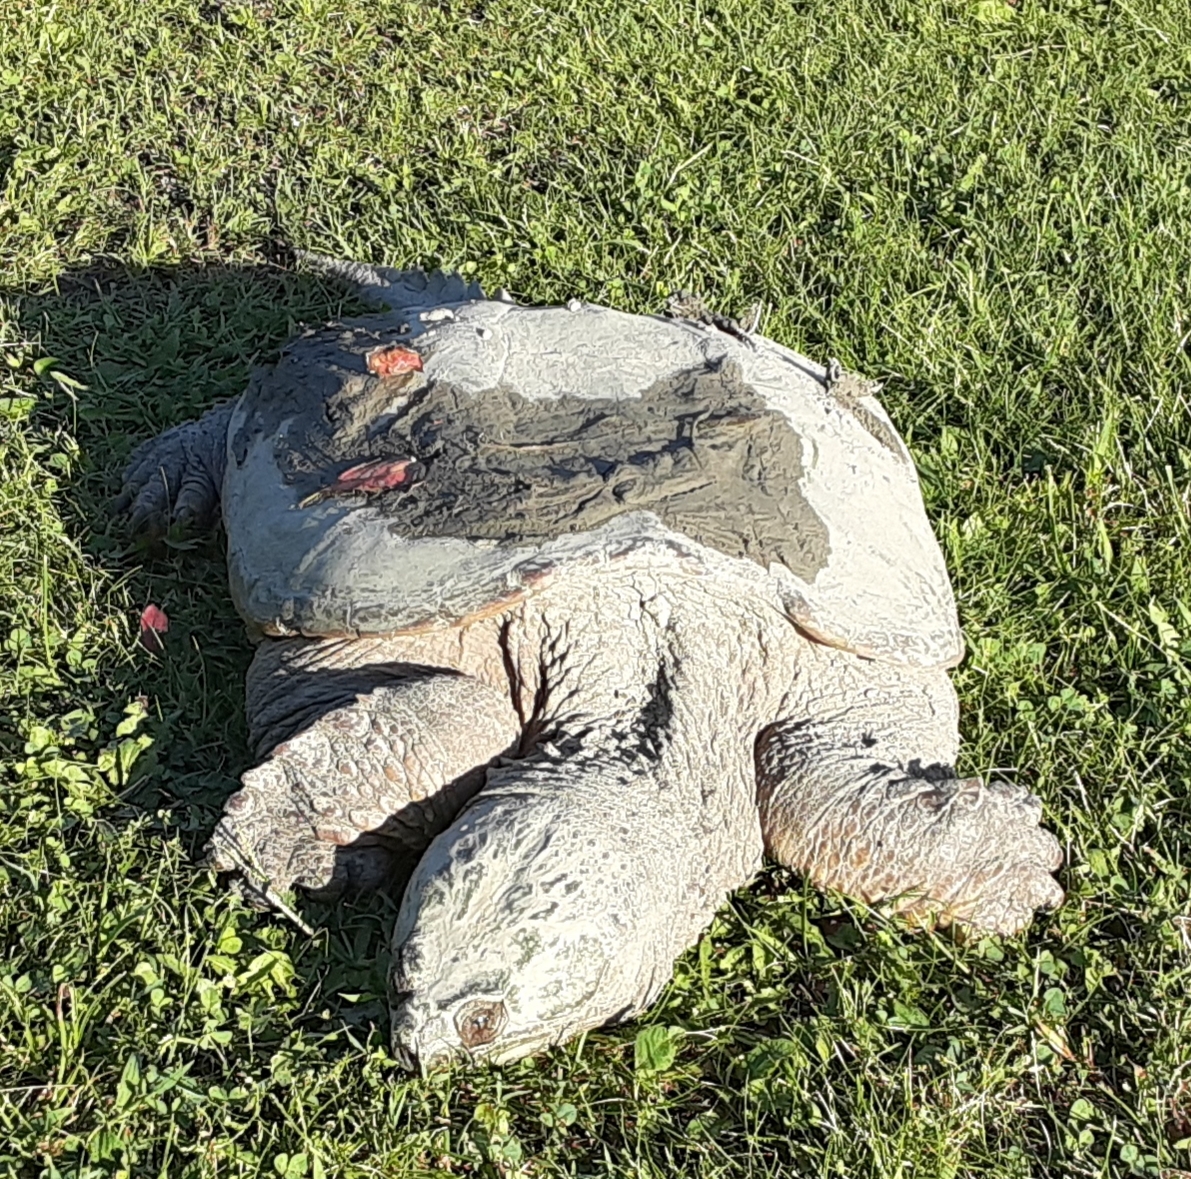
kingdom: Animalia
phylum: Chordata
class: Testudines
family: Chelydridae
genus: Chelydra
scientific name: Chelydra serpentina
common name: Common snapping turtle
